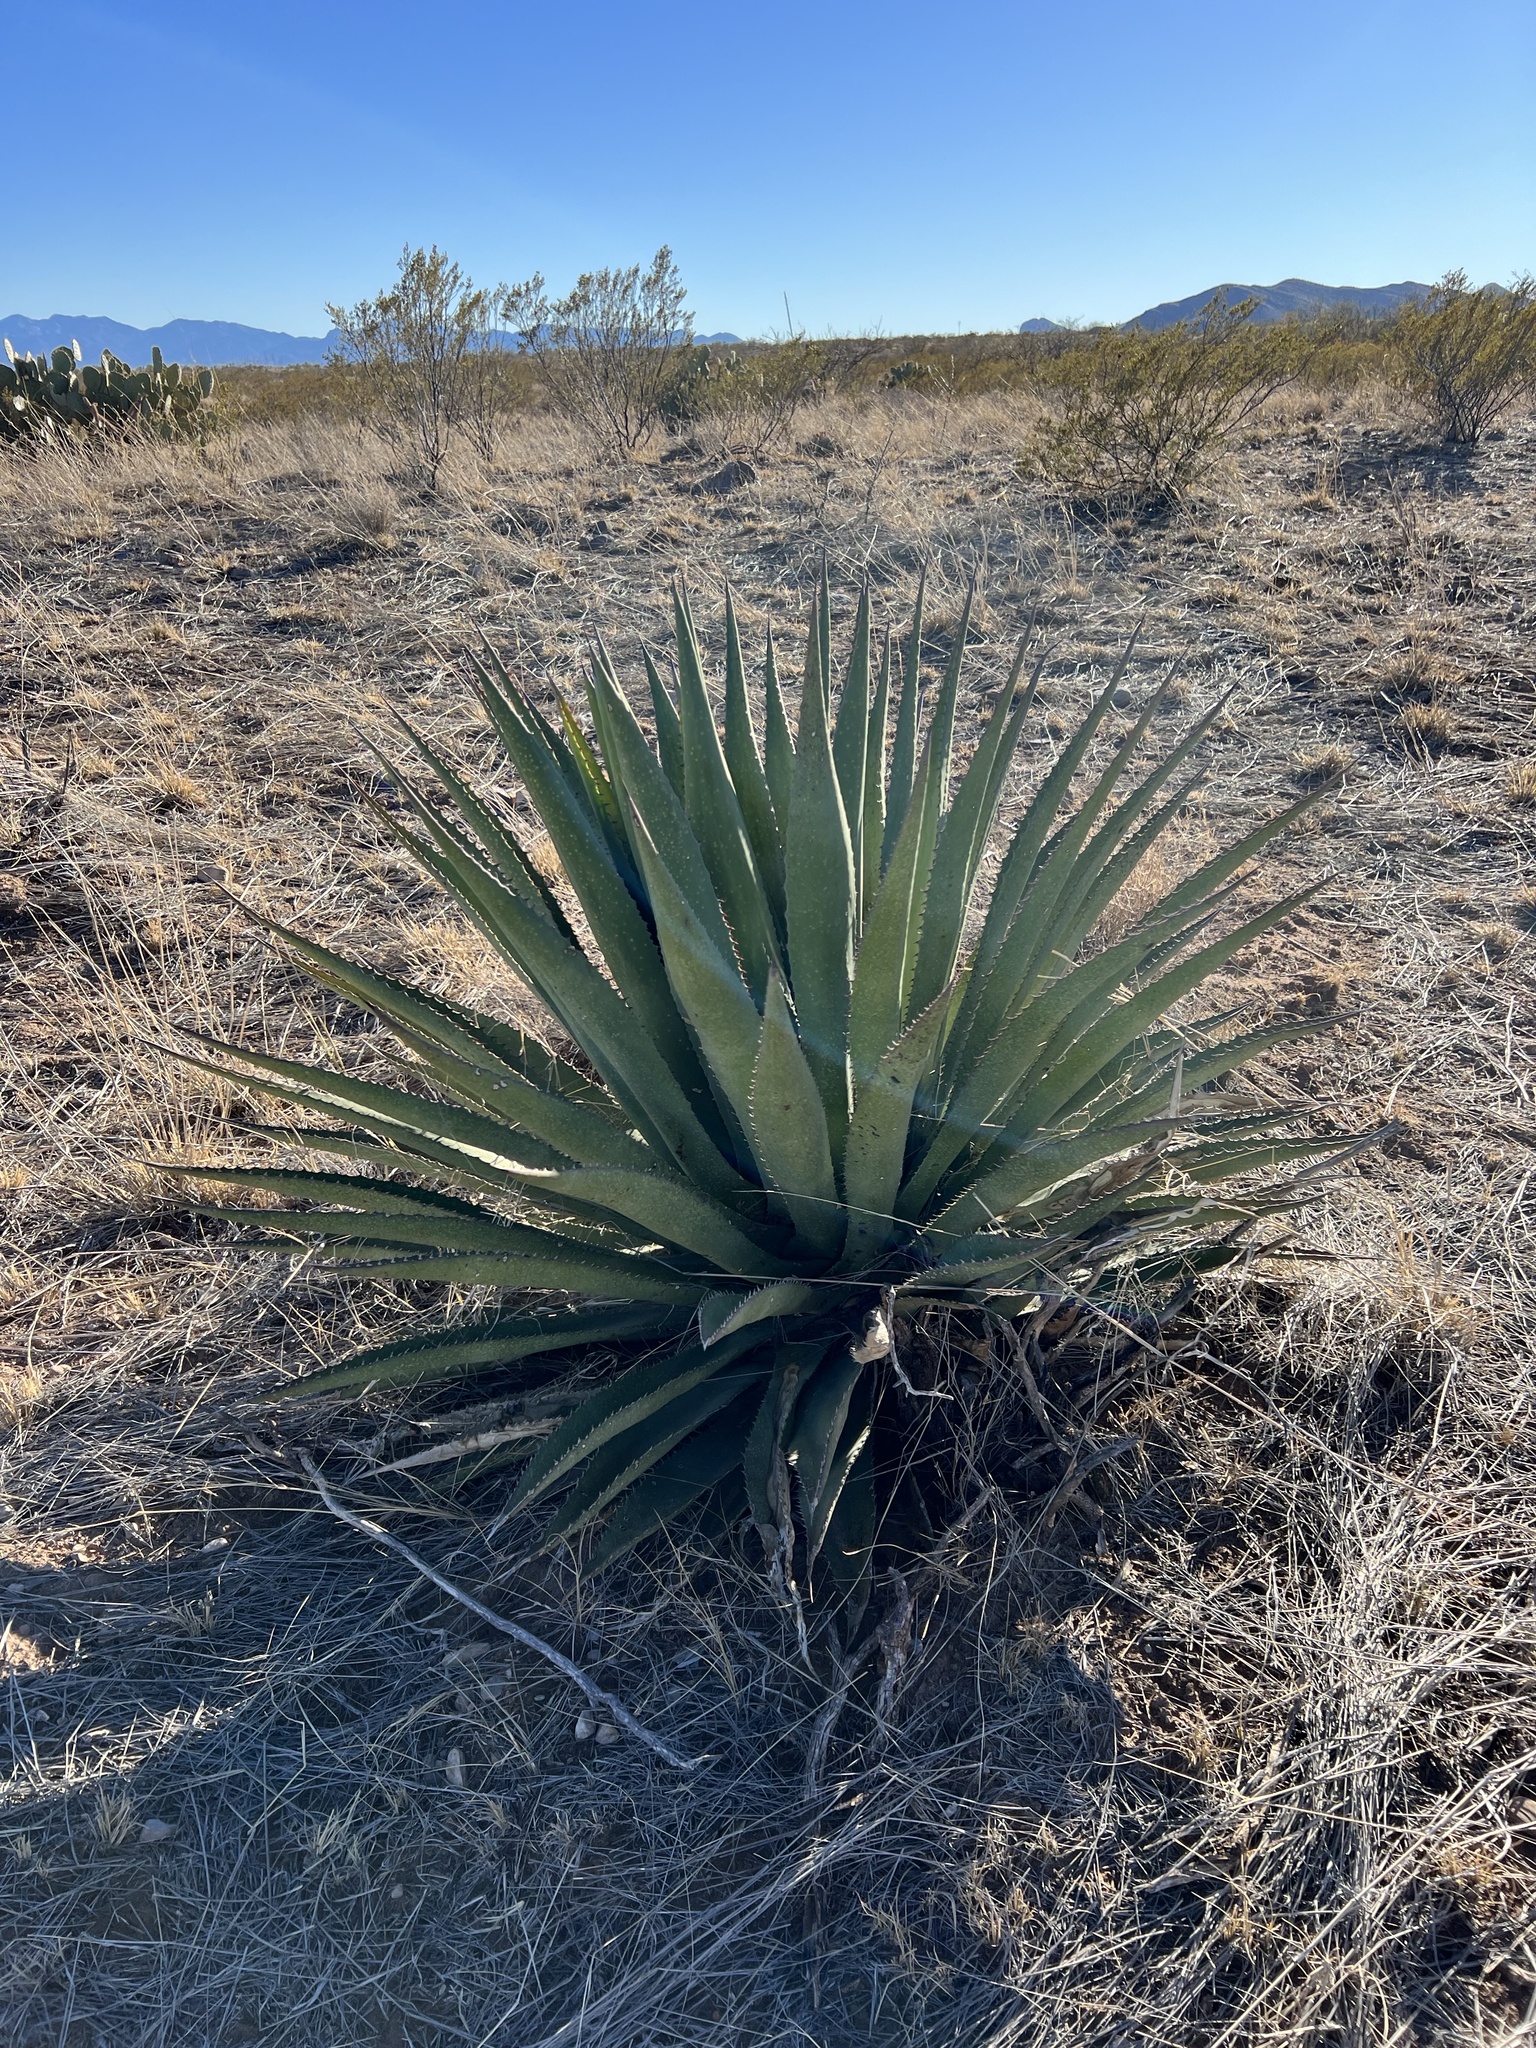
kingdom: Plantae
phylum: Tracheophyta
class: Liliopsida
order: Asparagales
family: Asparagaceae
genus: Agave
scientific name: Agave palmeri
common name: Palmer agave
